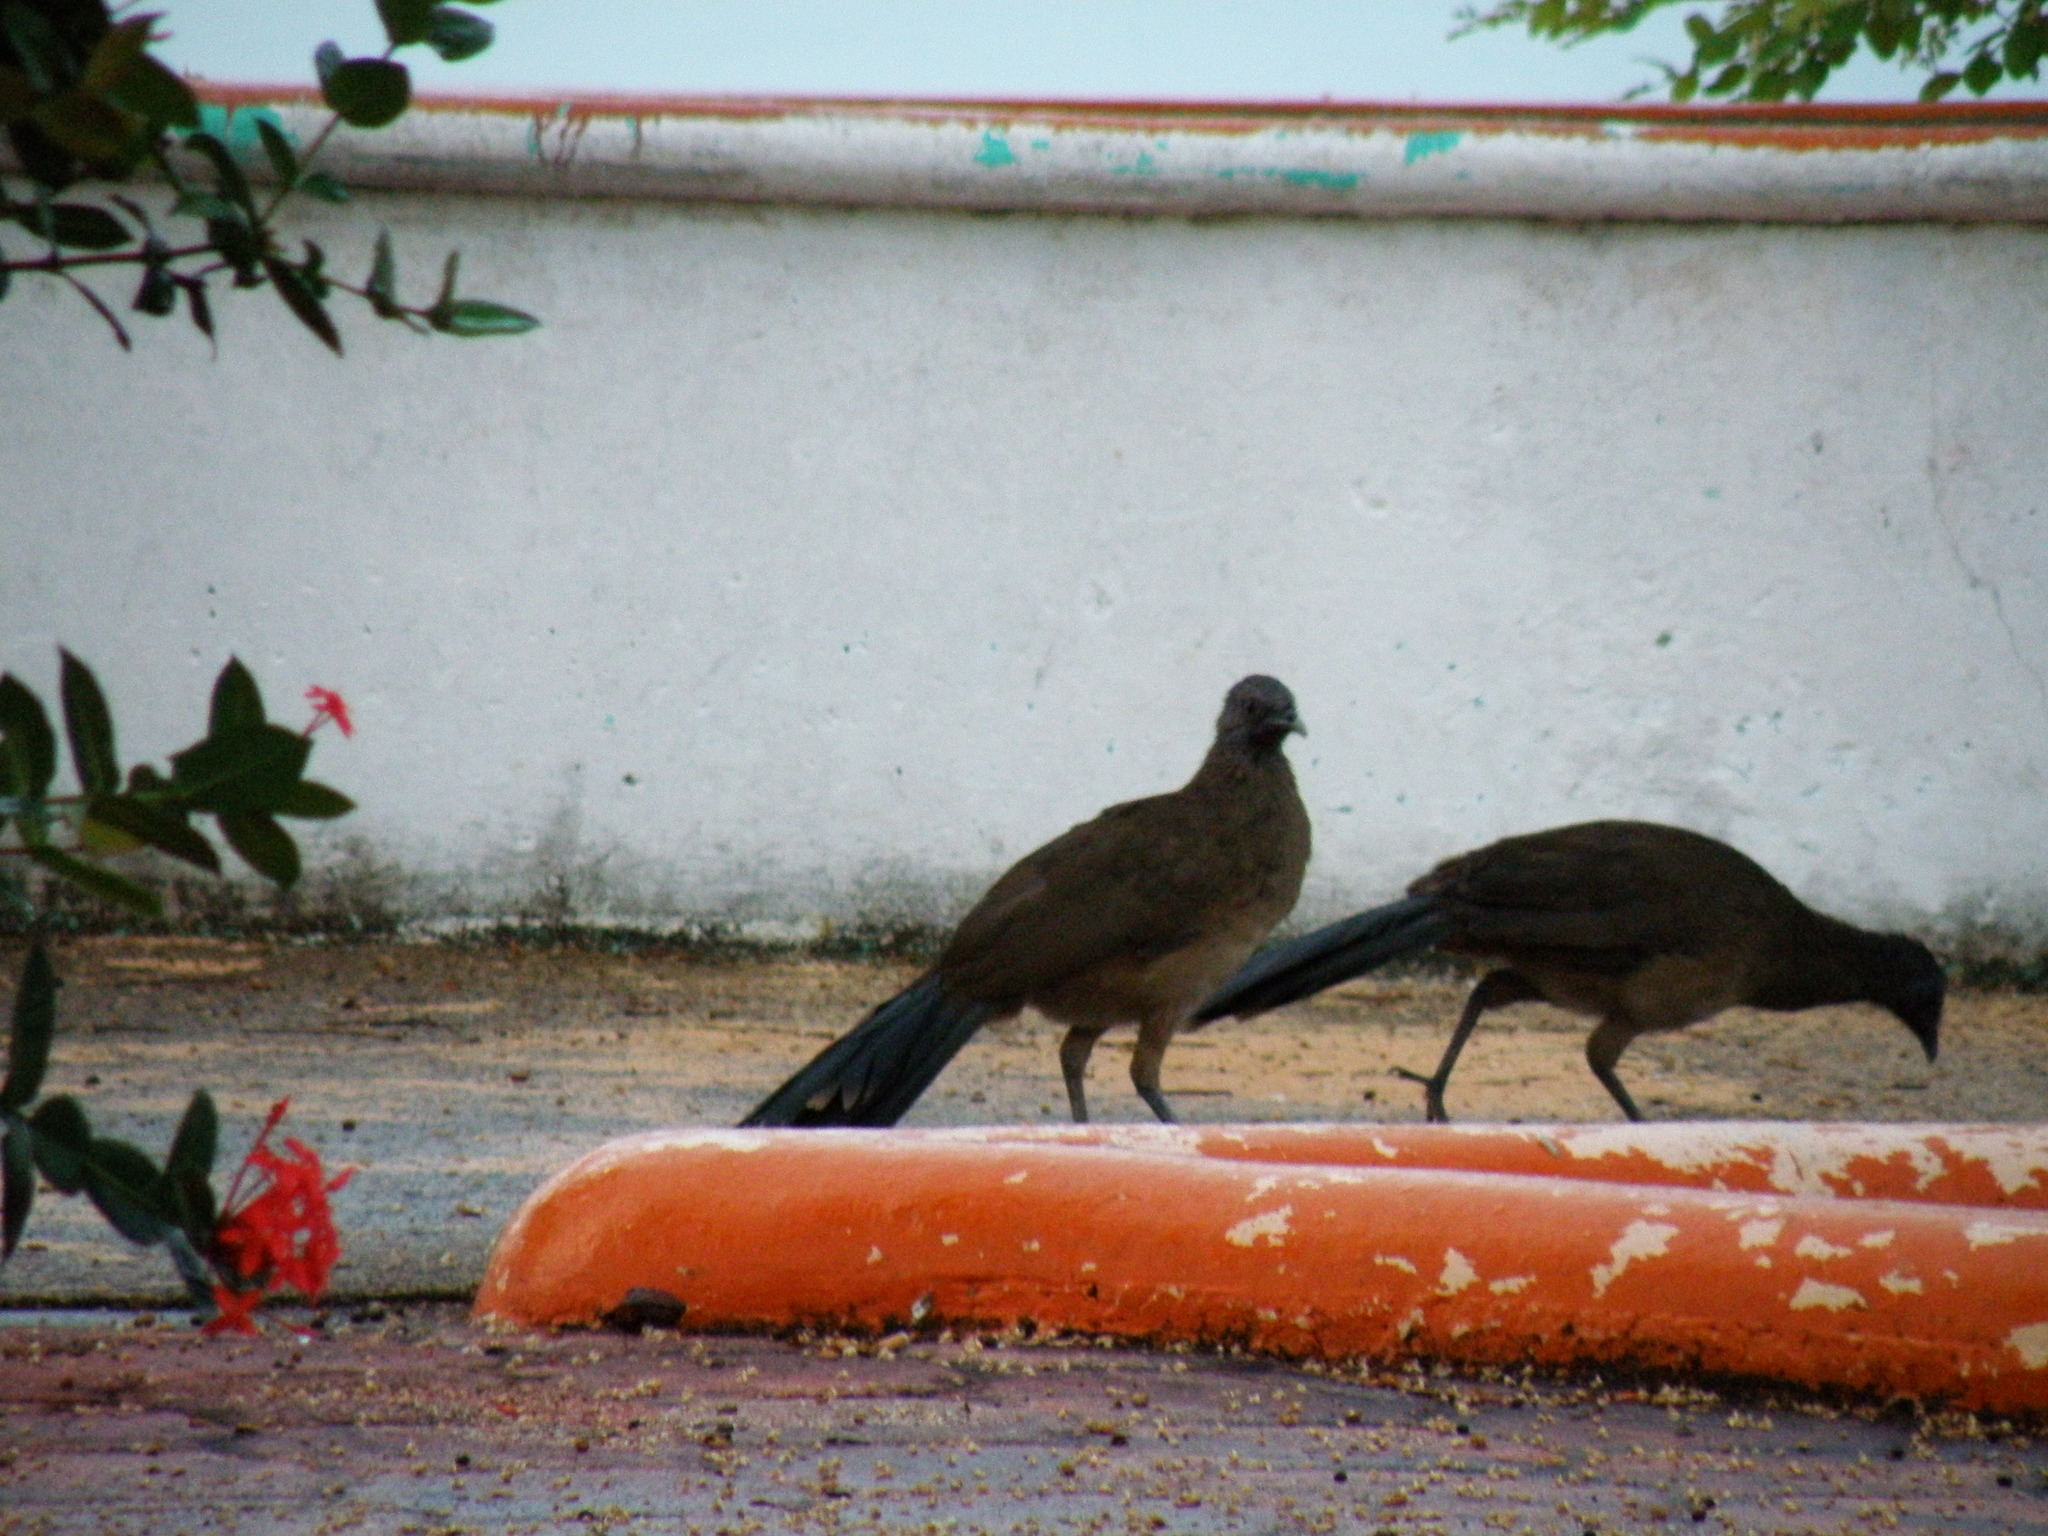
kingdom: Animalia
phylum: Chordata
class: Aves
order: Galliformes
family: Cracidae
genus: Ortalis
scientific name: Ortalis vetula
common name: Plain chachalaca
